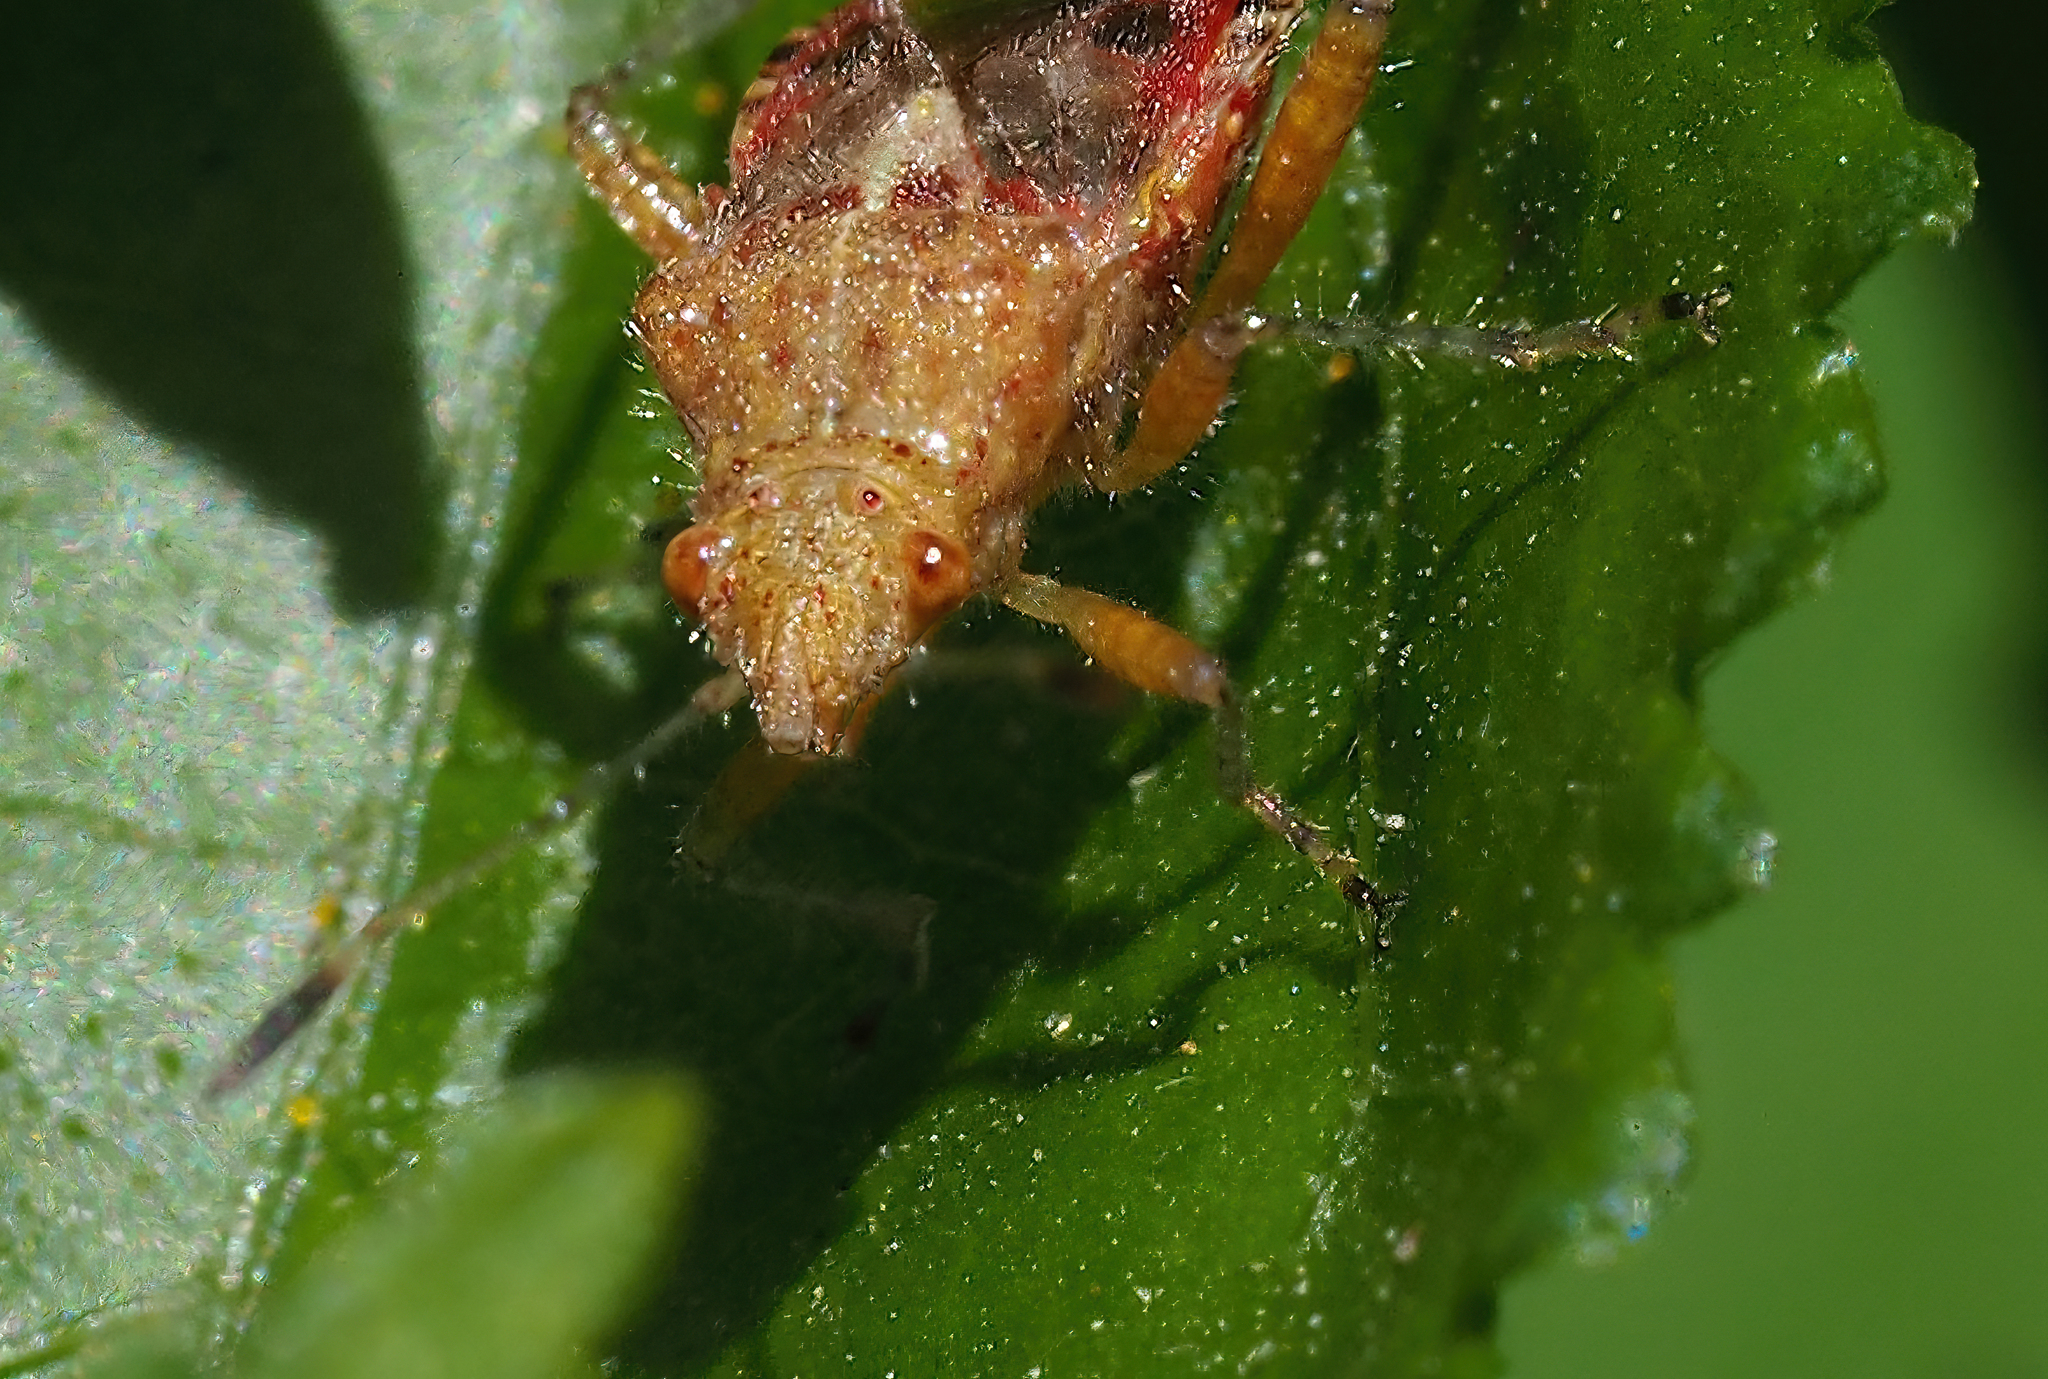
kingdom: Animalia
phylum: Arthropoda
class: Insecta
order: Hemiptera
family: Rhopalidae
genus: Niesthrea
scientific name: Niesthrea
